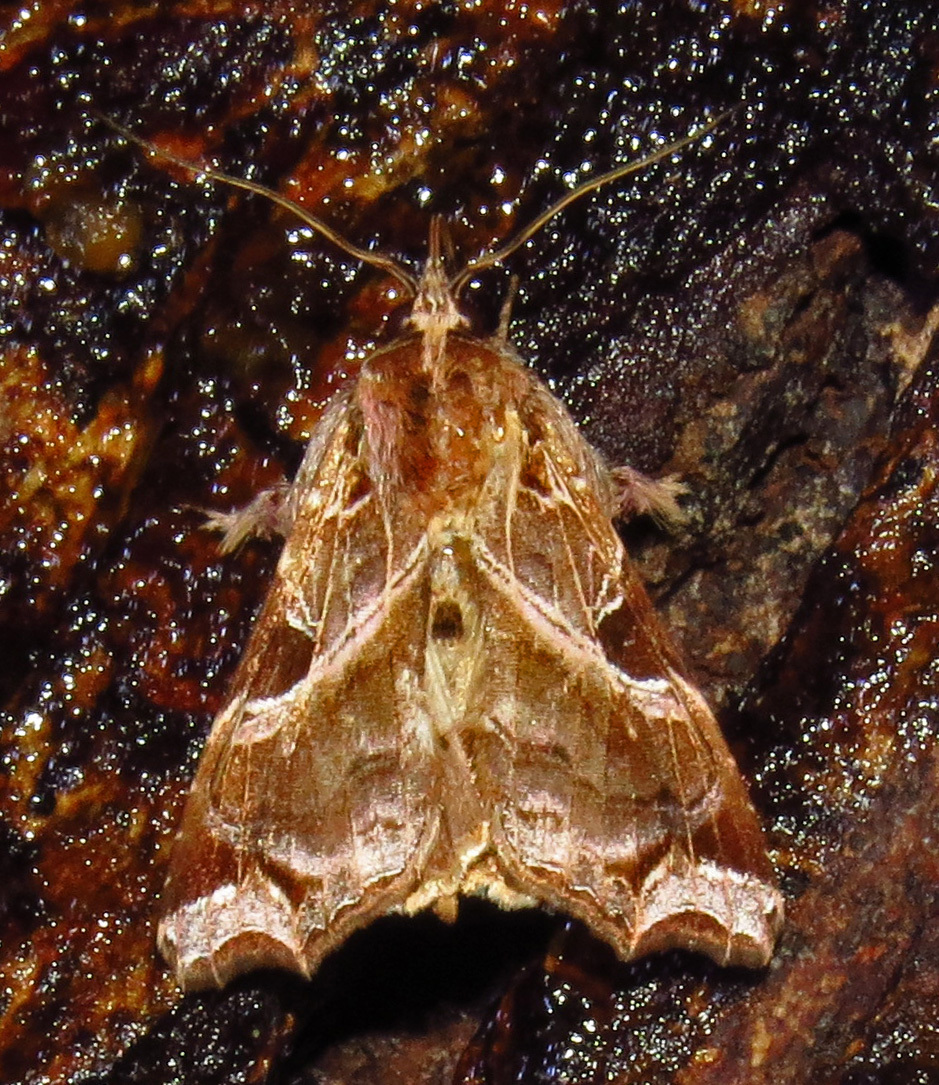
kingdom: Animalia
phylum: Arthropoda
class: Insecta
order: Lepidoptera
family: Noctuidae
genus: Callopistria
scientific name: Callopistria floridensis
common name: Florida fern moth
